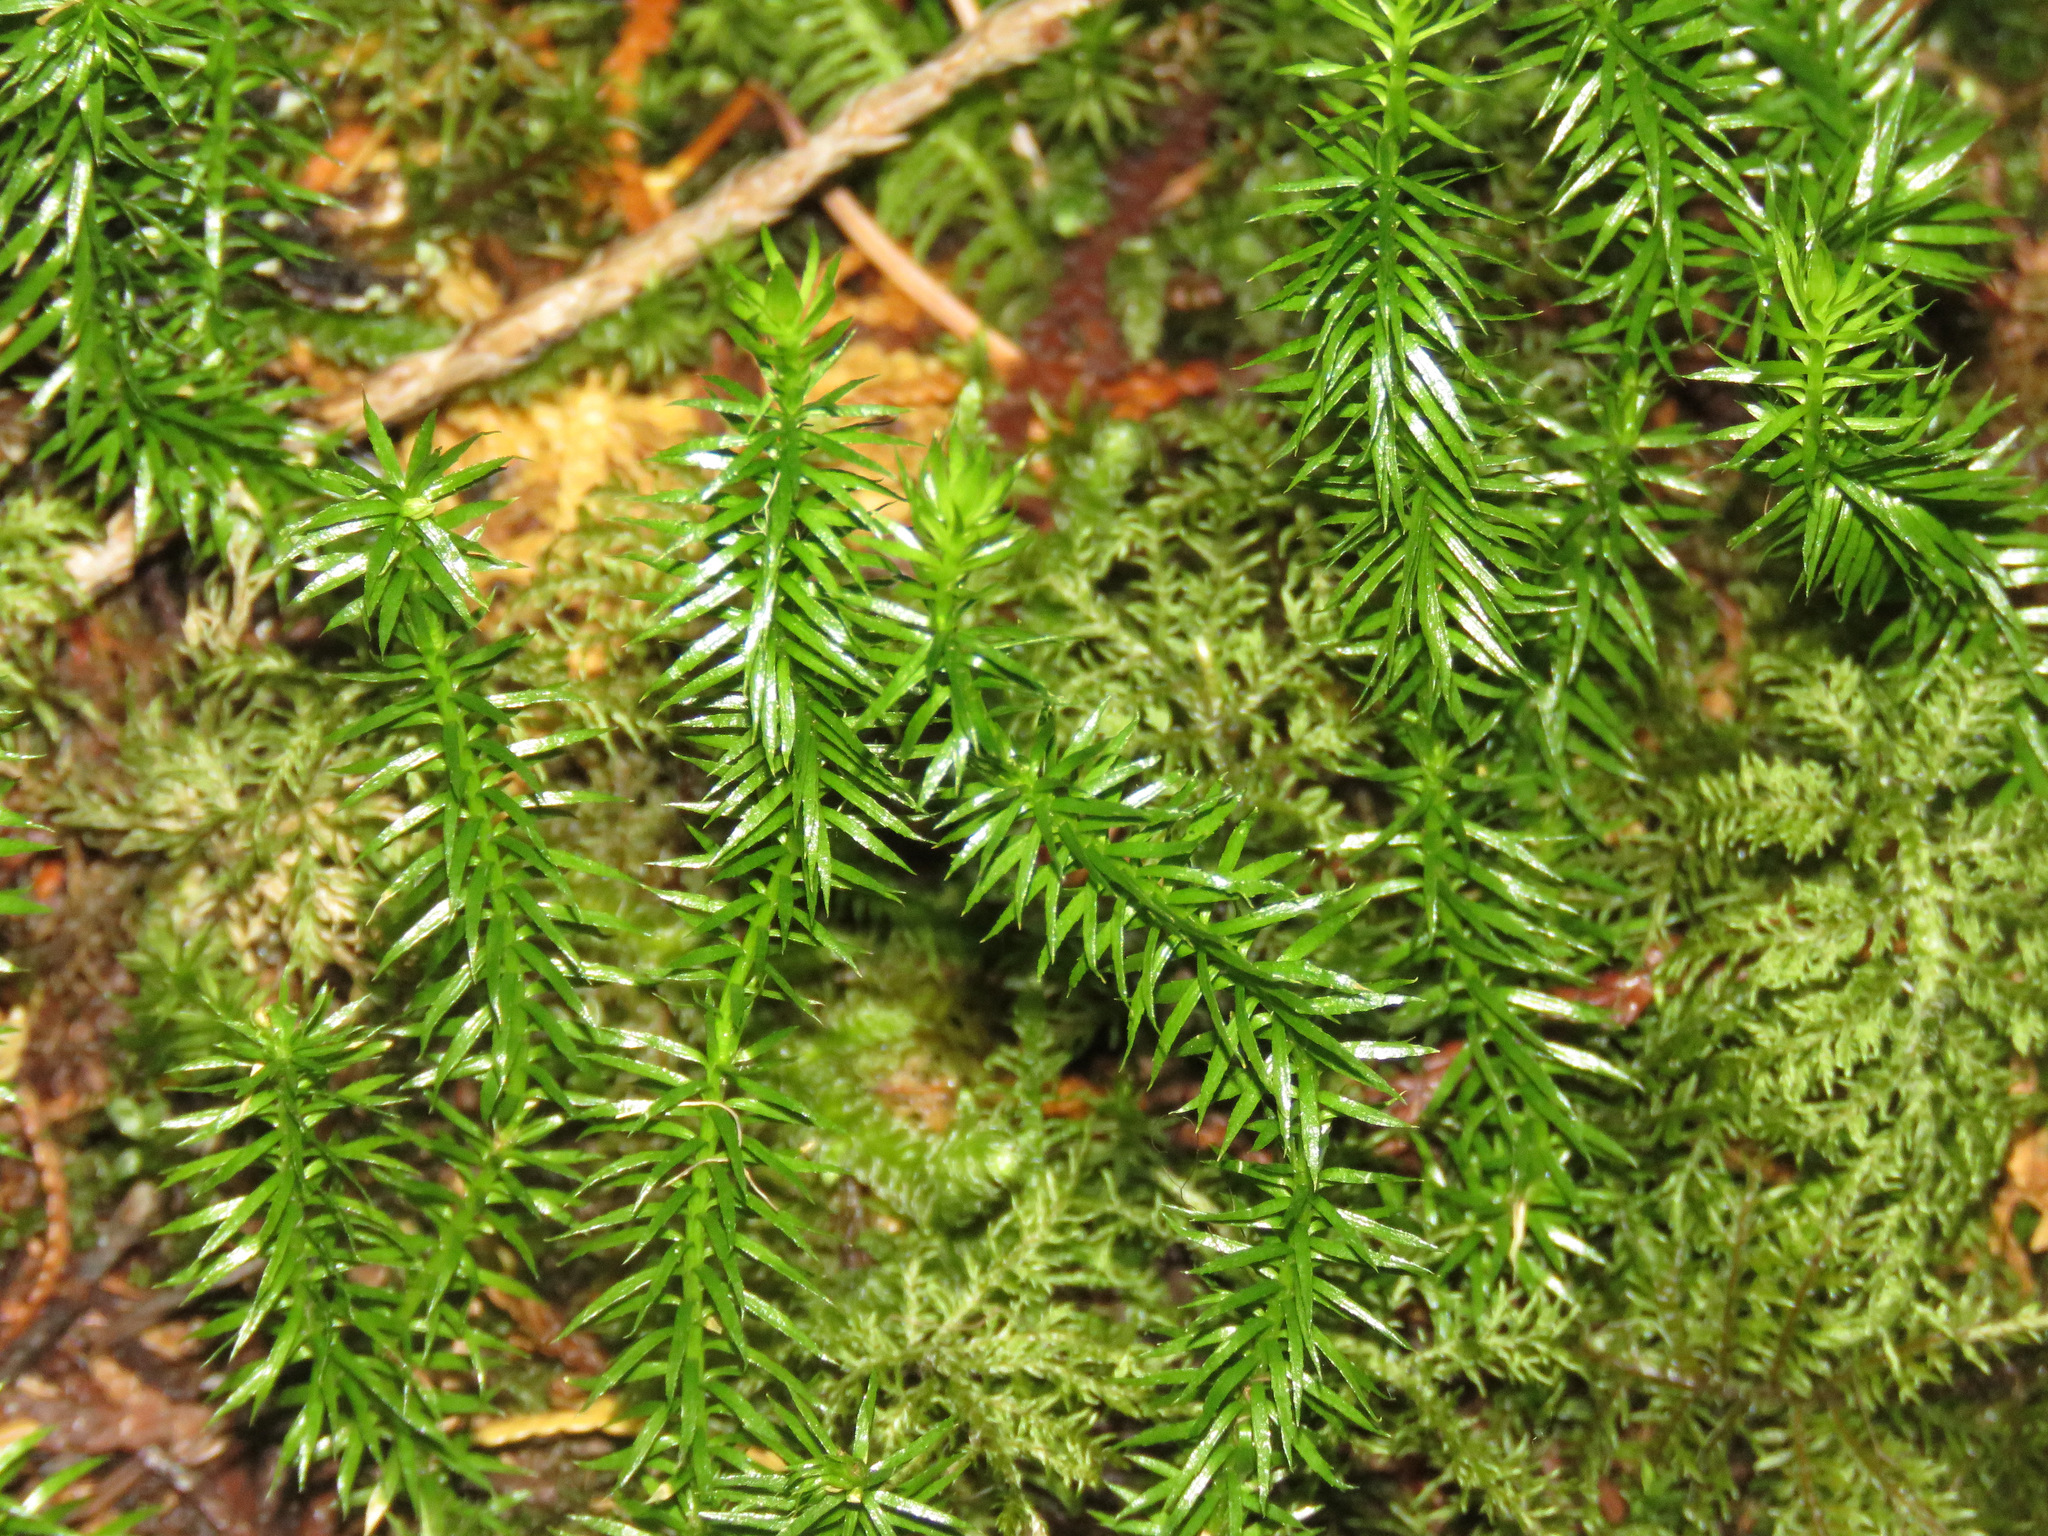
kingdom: Plantae
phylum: Tracheophyta
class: Lycopodiopsida
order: Lycopodiales
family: Lycopodiaceae
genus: Spinulum
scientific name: Spinulum annotinum
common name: Interrupted club-moss
